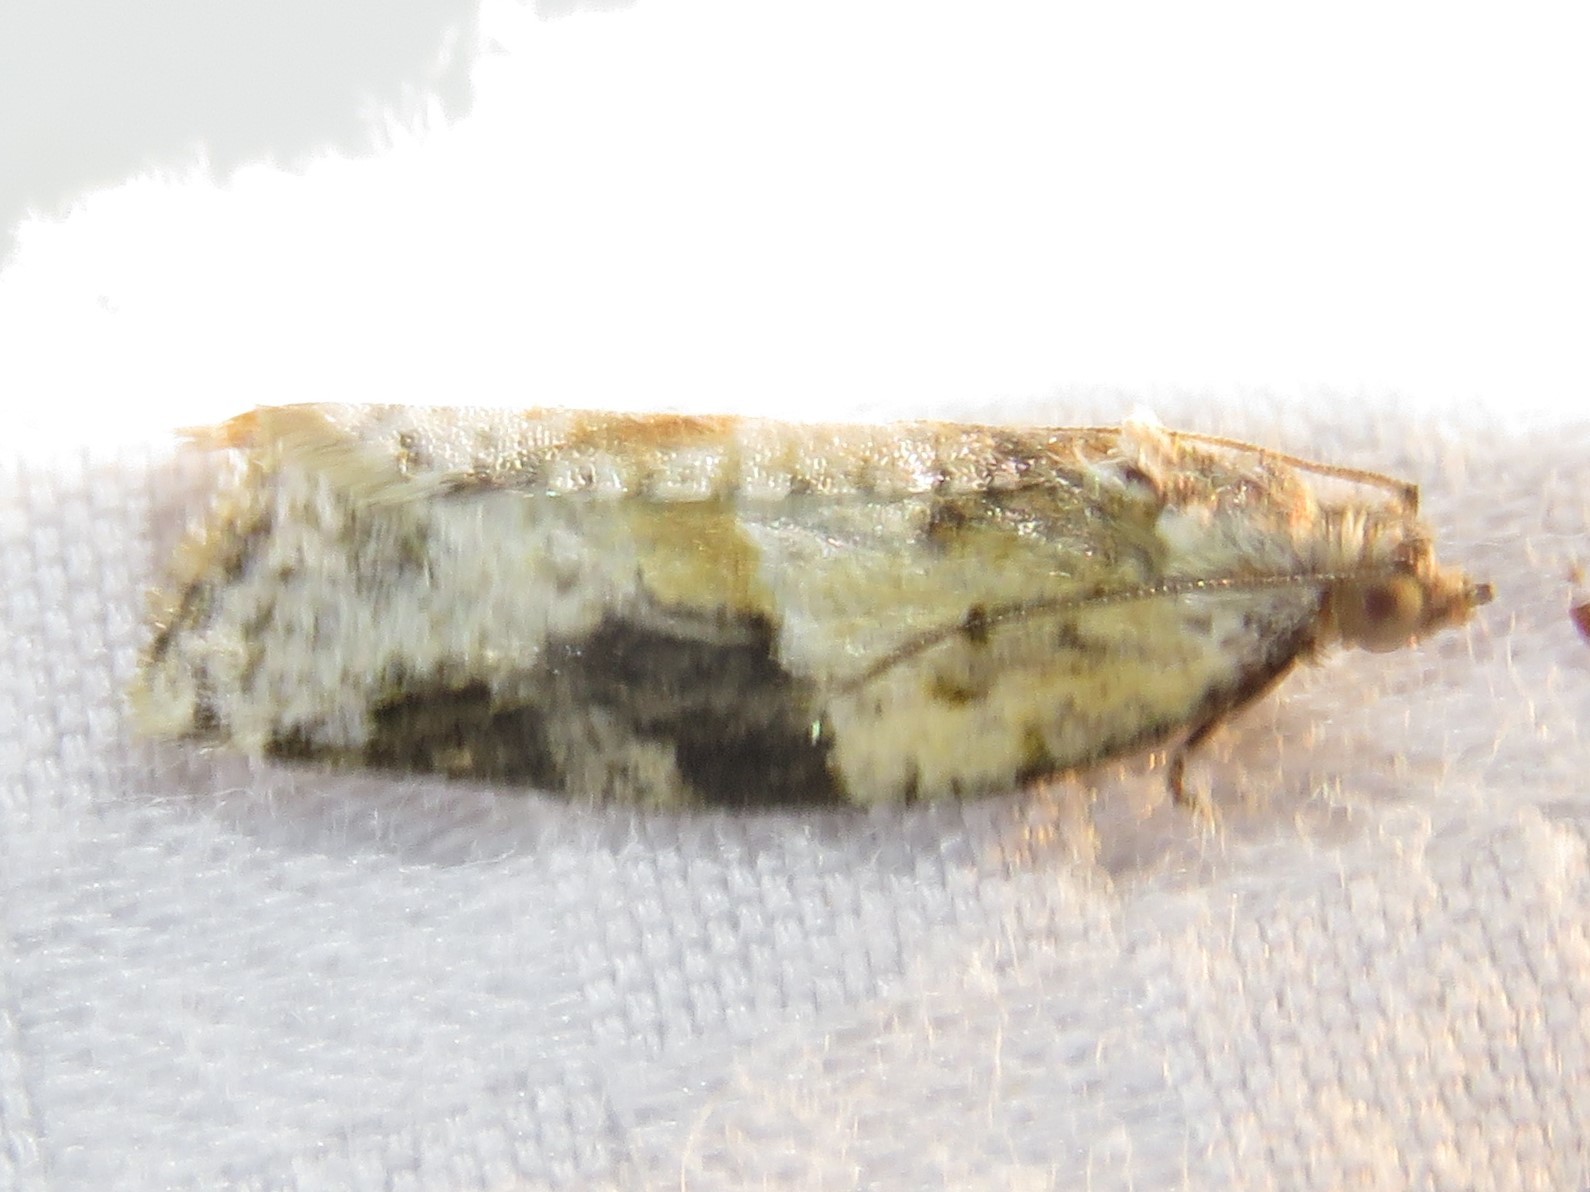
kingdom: Animalia
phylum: Arthropoda
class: Insecta
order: Lepidoptera
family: Tortricidae
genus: Argyrotaenia
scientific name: Argyrotaenia mariana
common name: Gray-banded leafroller moth
